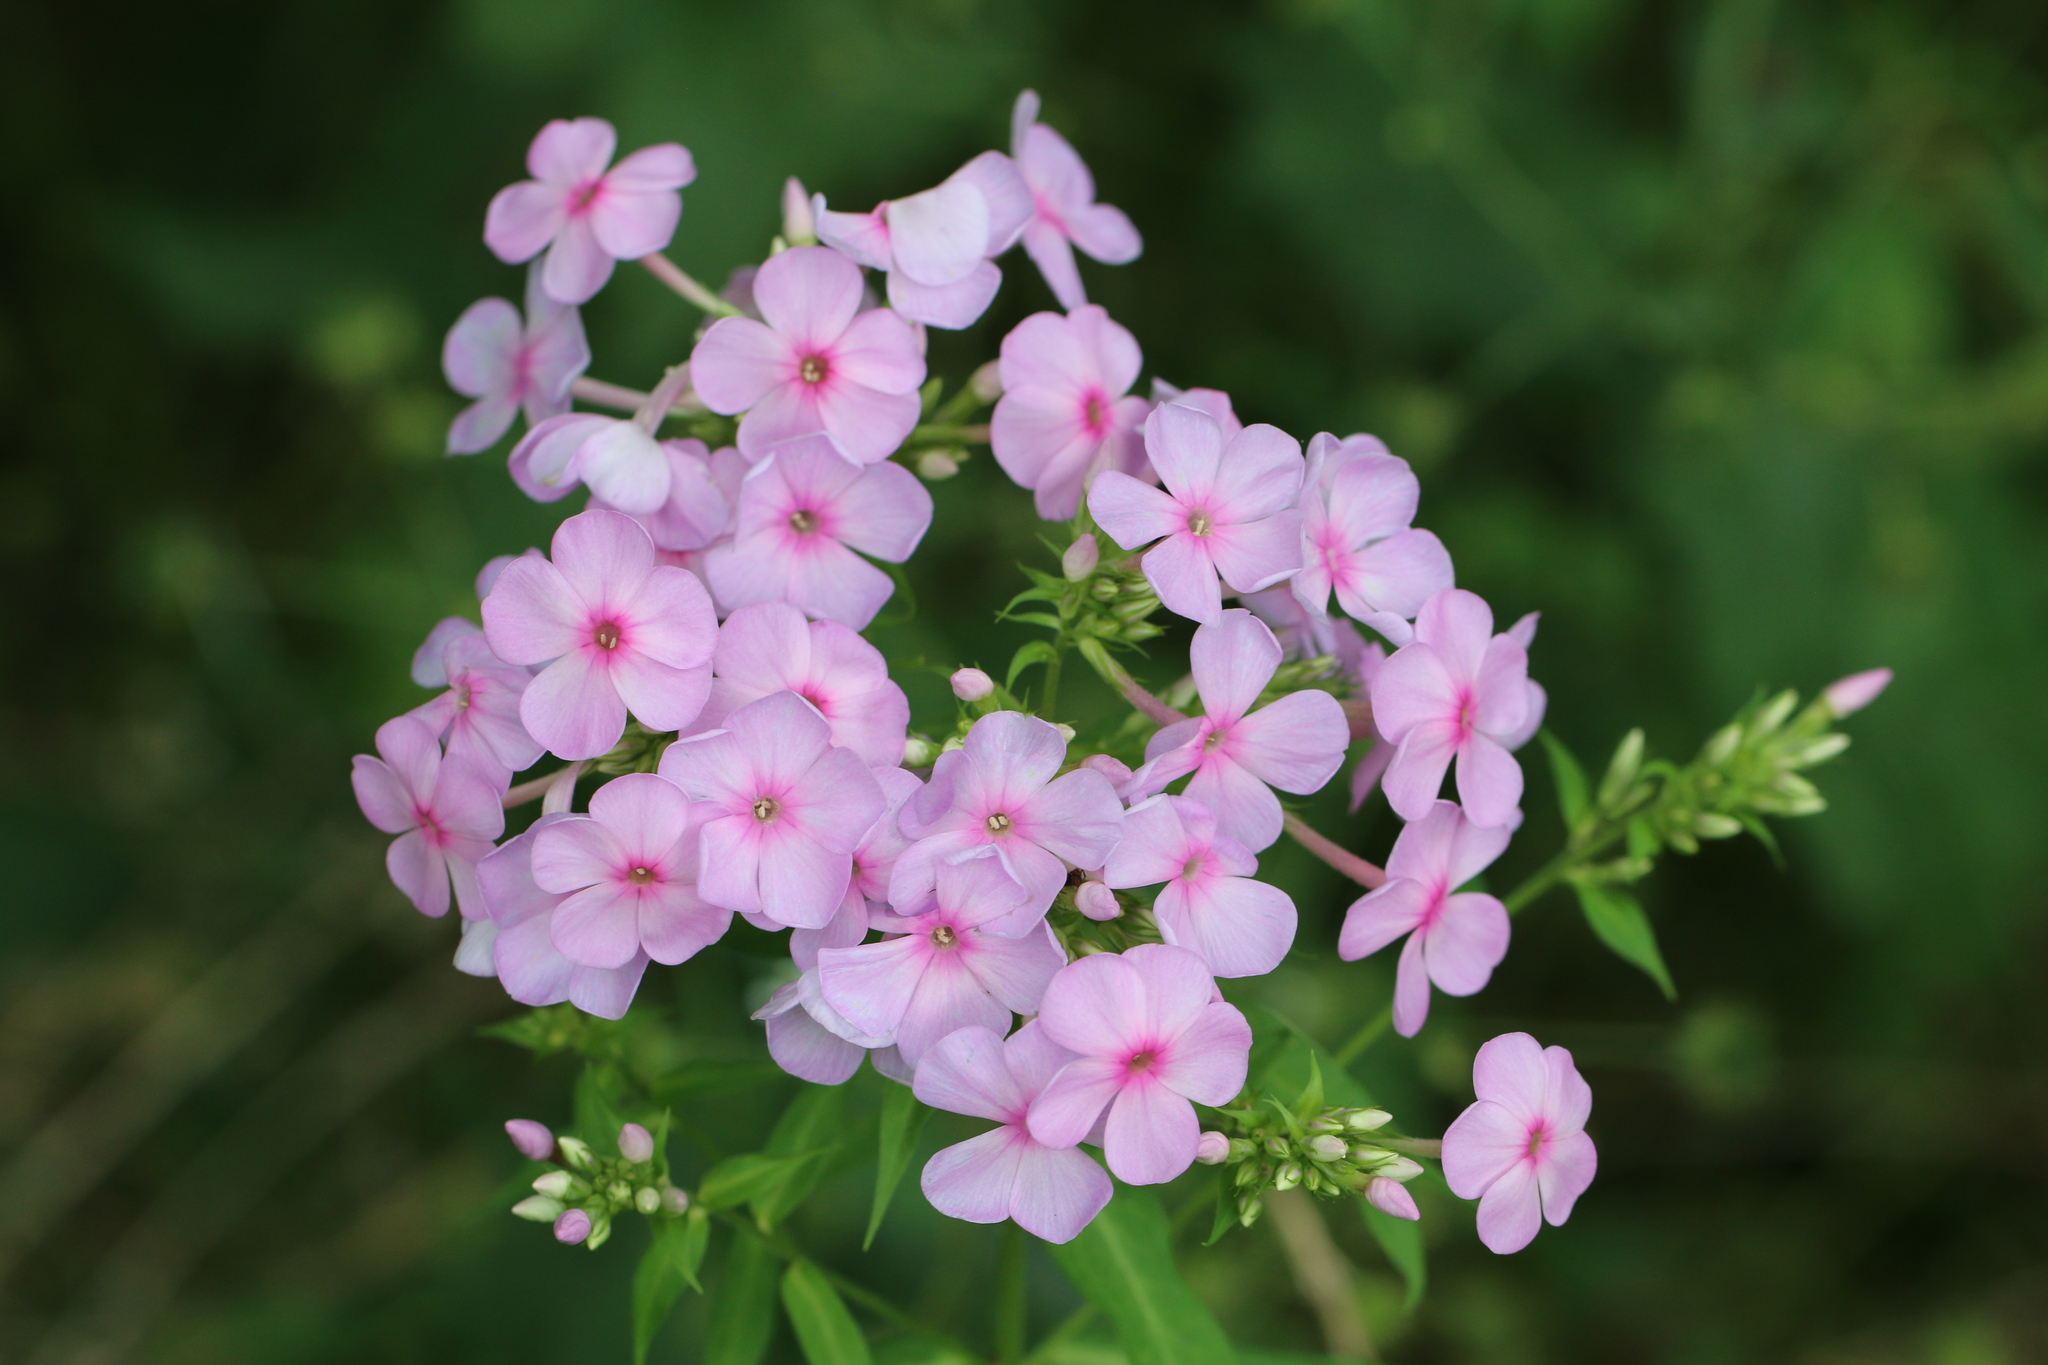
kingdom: Plantae
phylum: Tracheophyta
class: Magnoliopsida
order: Ericales
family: Polemoniaceae
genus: Phlox
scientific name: Phlox paniculata
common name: Fall phlox
